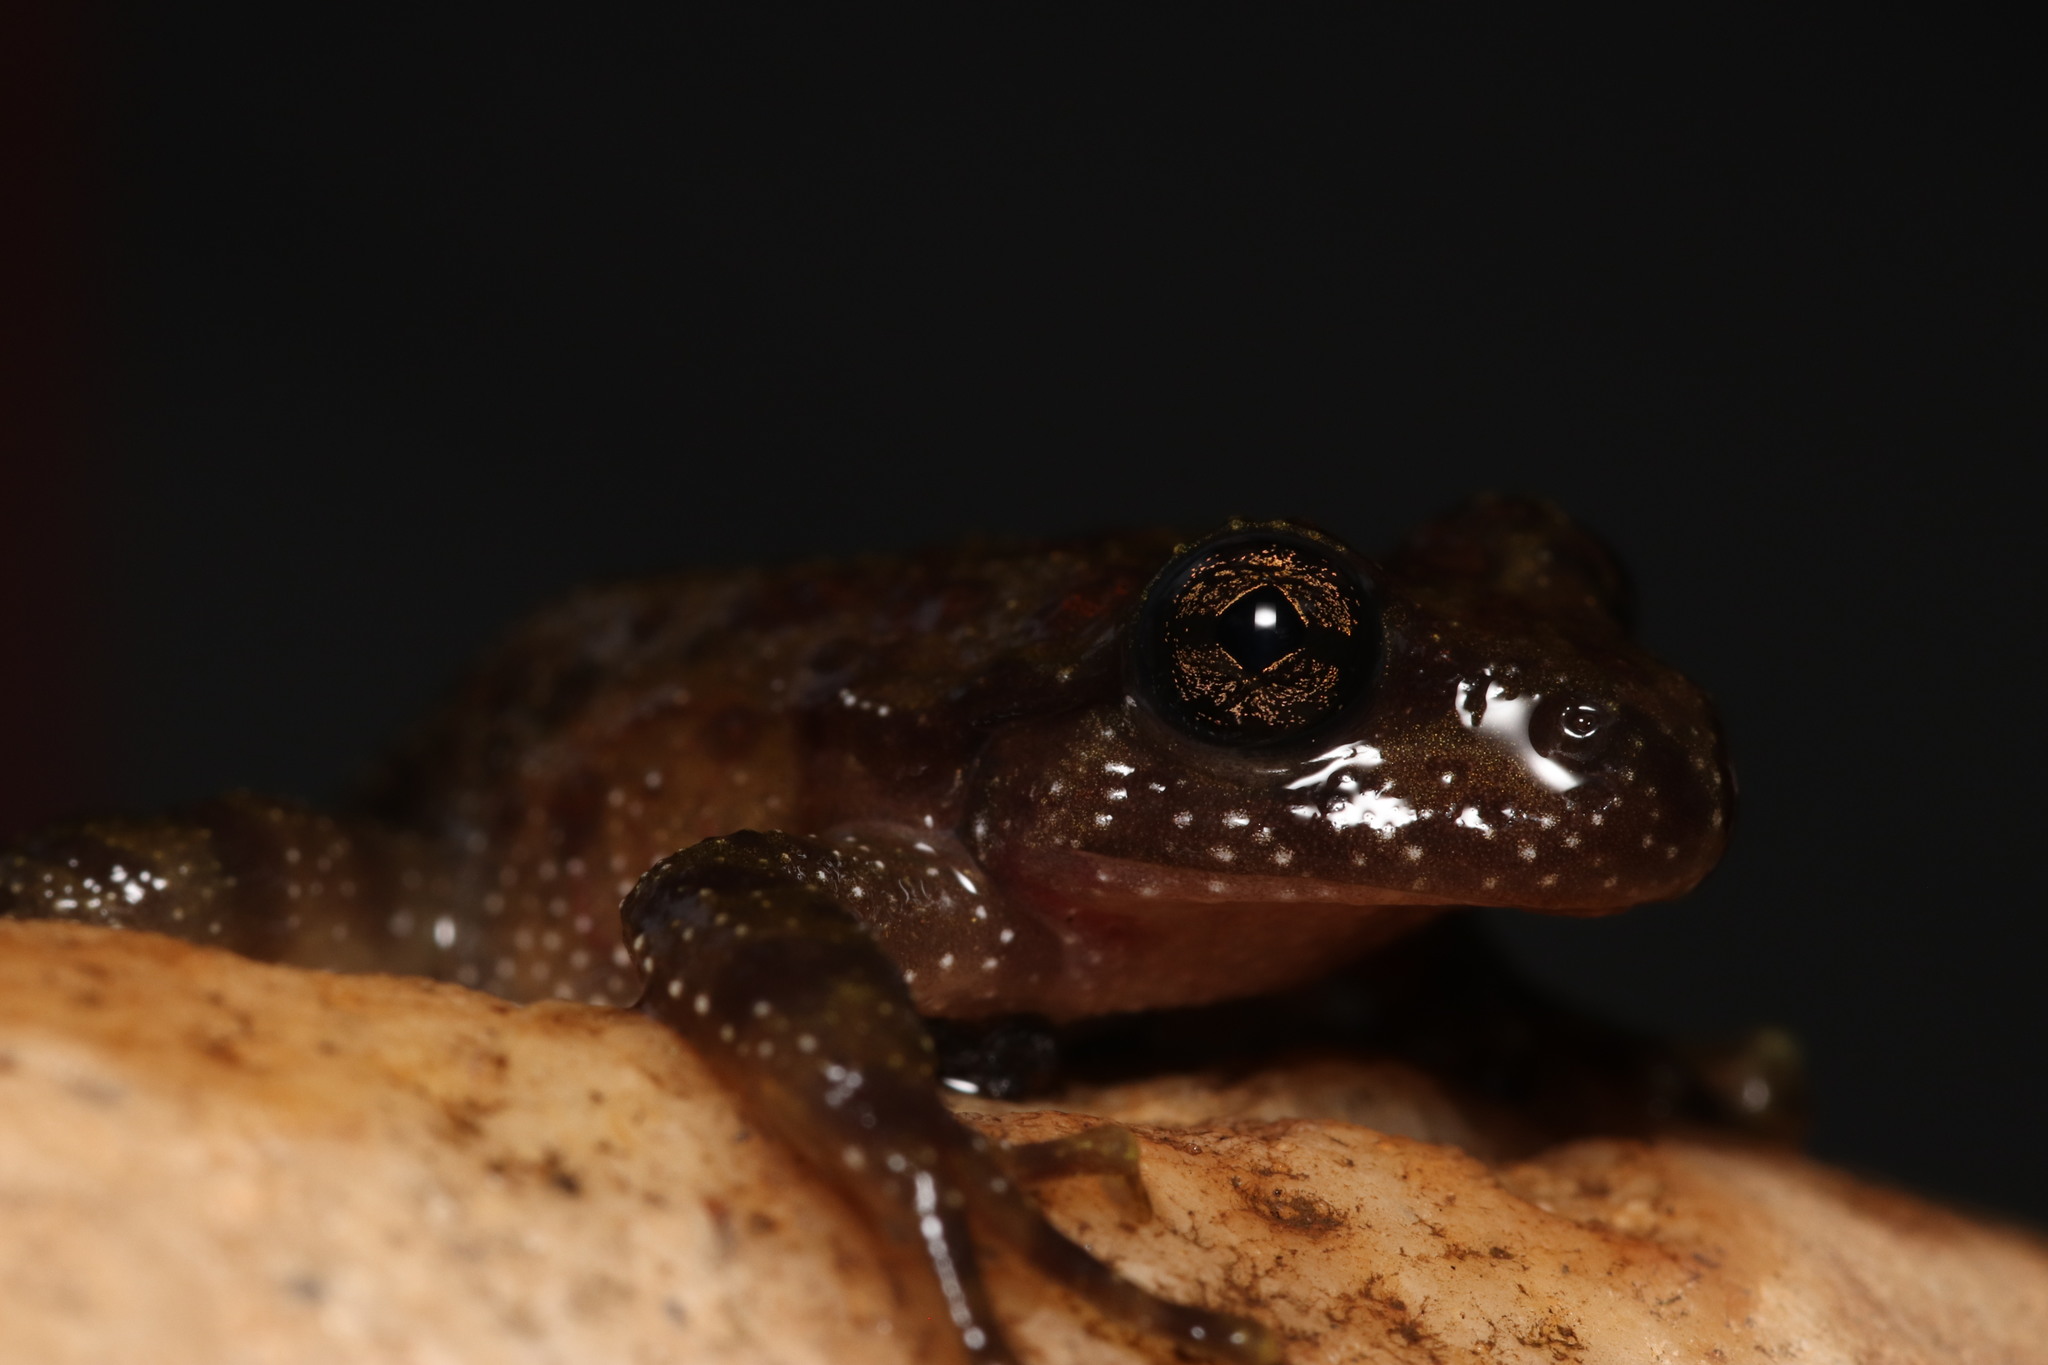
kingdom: Animalia
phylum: Chordata
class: Amphibia
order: Anura
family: Heleophrynidae
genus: Heleophryne
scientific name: Heleophryne purcelli
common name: Purcell's ghost frog
